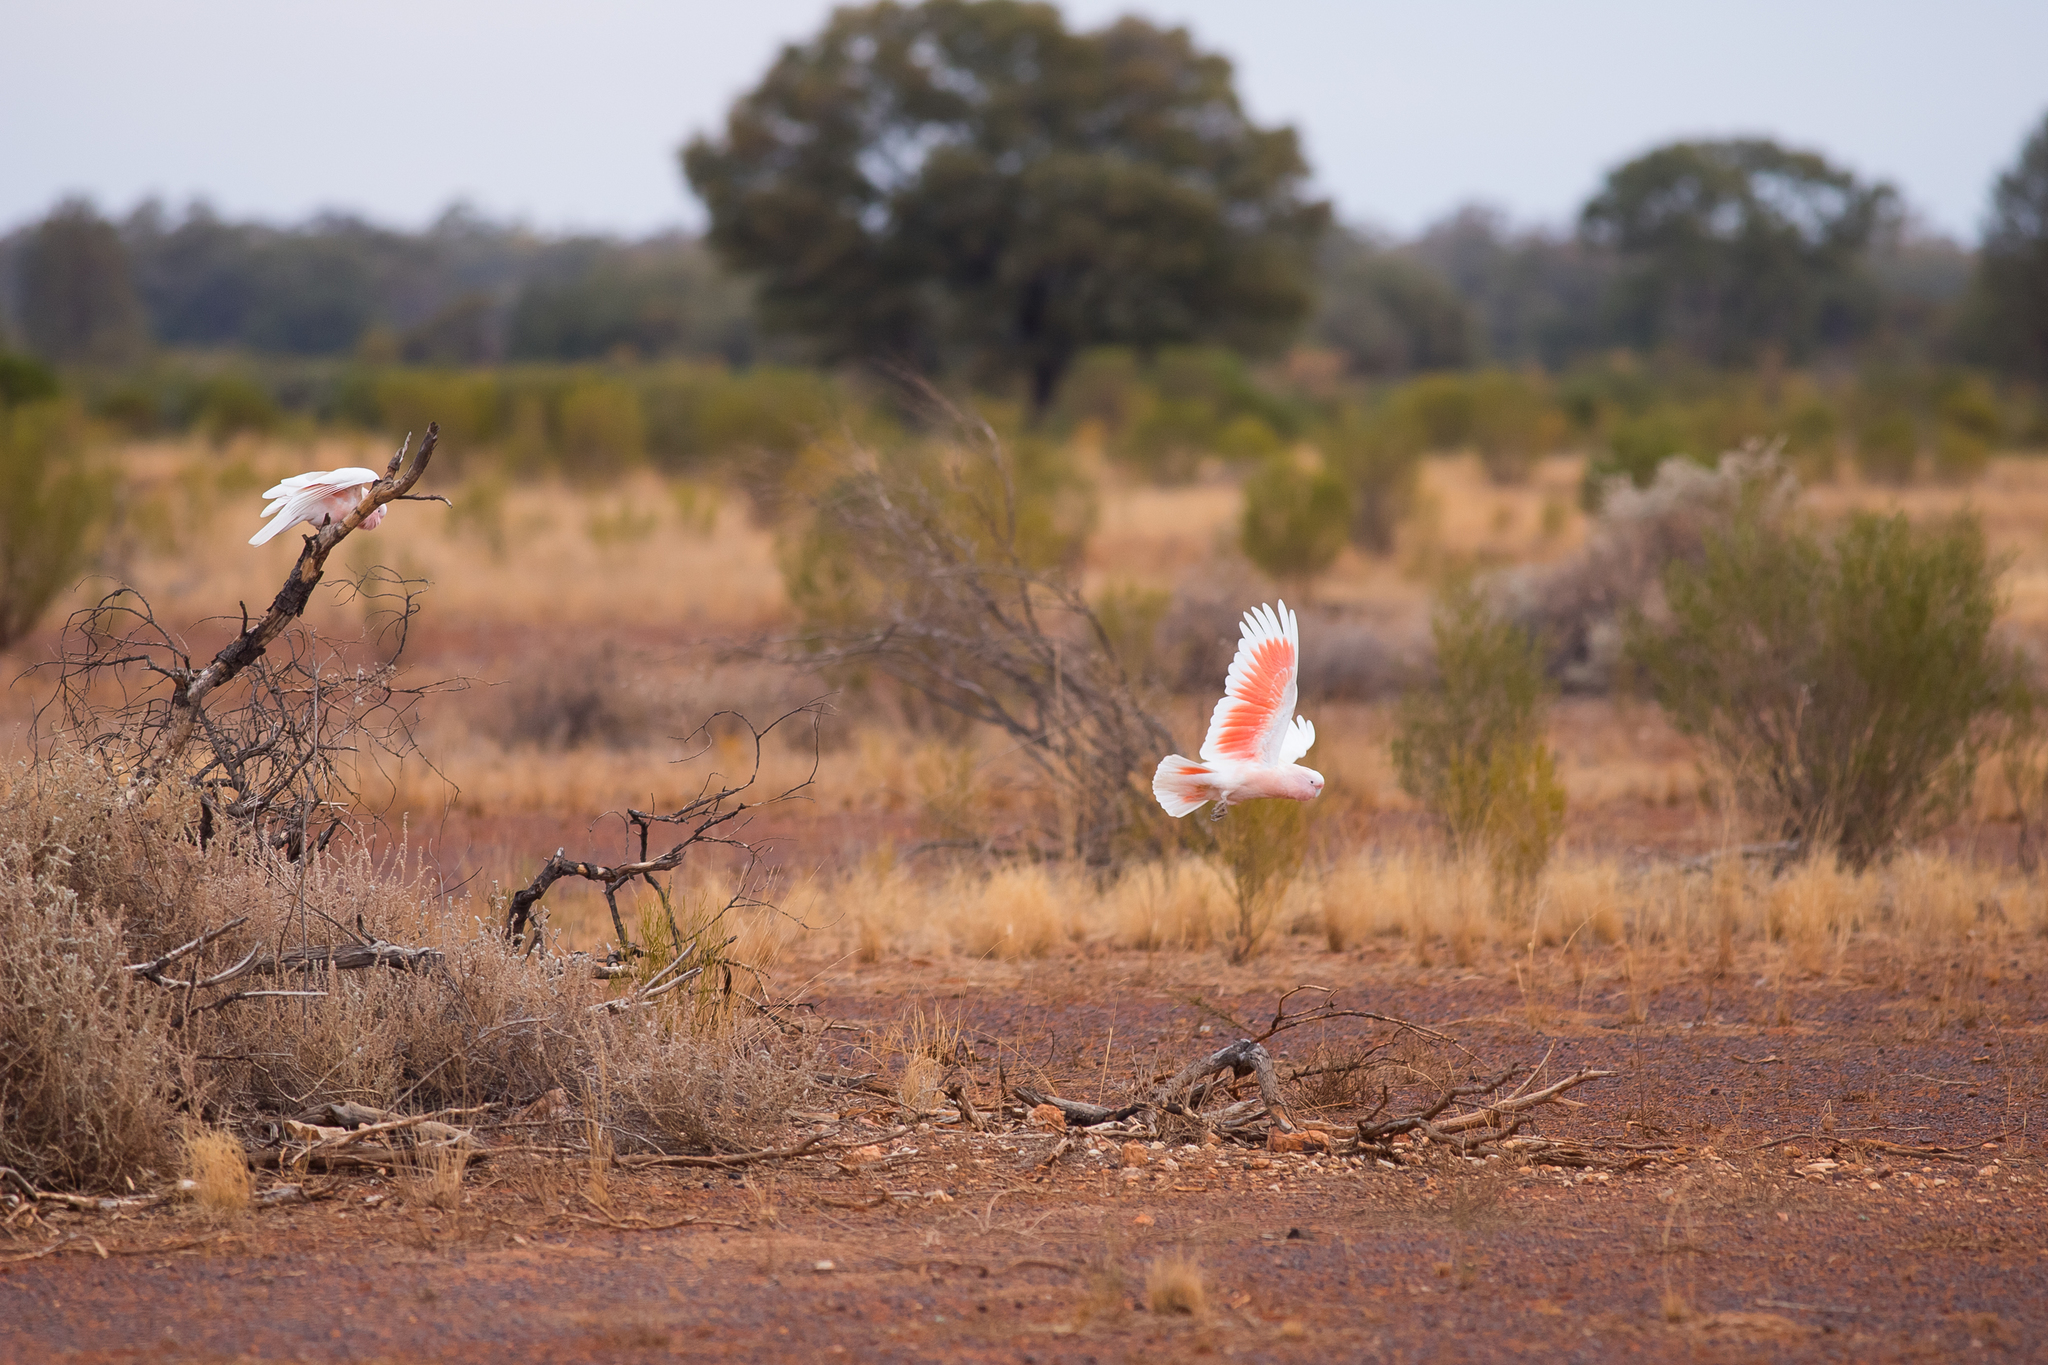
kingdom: Animalia
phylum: Chordata
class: Aves
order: Psittaciformes
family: Psittacidae
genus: Cacatua
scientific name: Cacatua leadbeateri
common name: Major mitchell's cockatoo
